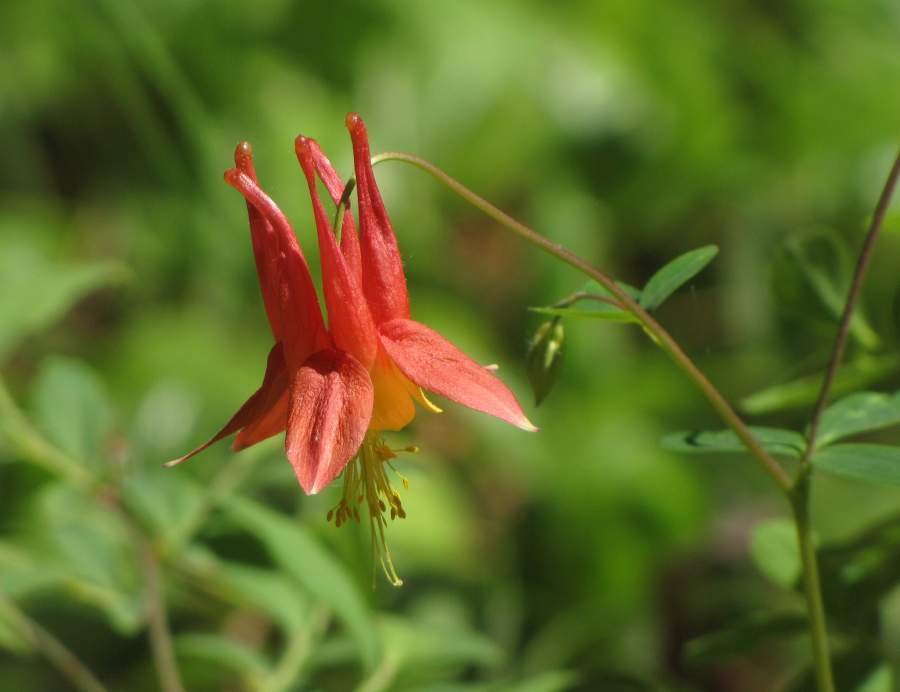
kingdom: Plantae
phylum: Tracheophyta
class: Magnoliopsida
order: Ranunculales
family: Ranunculaceae
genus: Aquilegia
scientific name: Aquilegia canadensis
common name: American columbine
